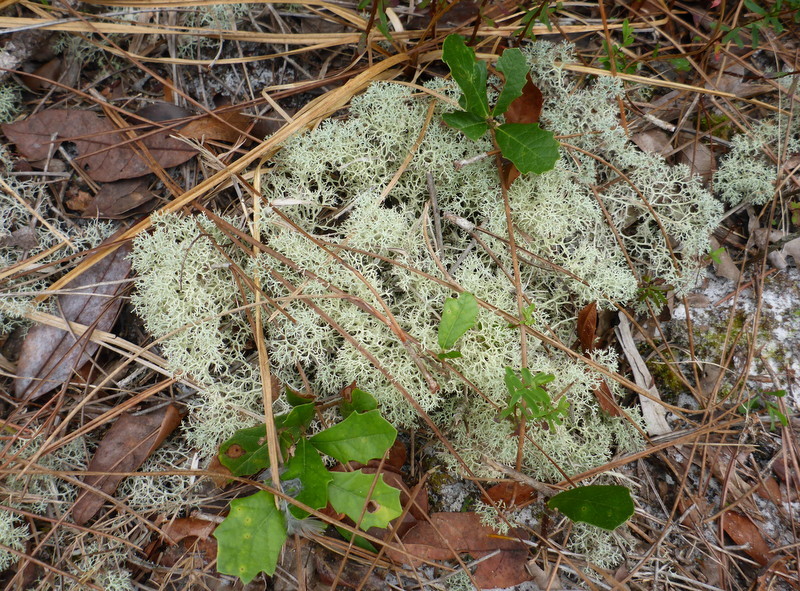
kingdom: Fungi
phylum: Ascomycota
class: Lecanoromycetes
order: Lecanorales
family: Cladoniaceae
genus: Cladonia
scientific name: Cladonia subtenuis
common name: Dixie reindeer lichen
